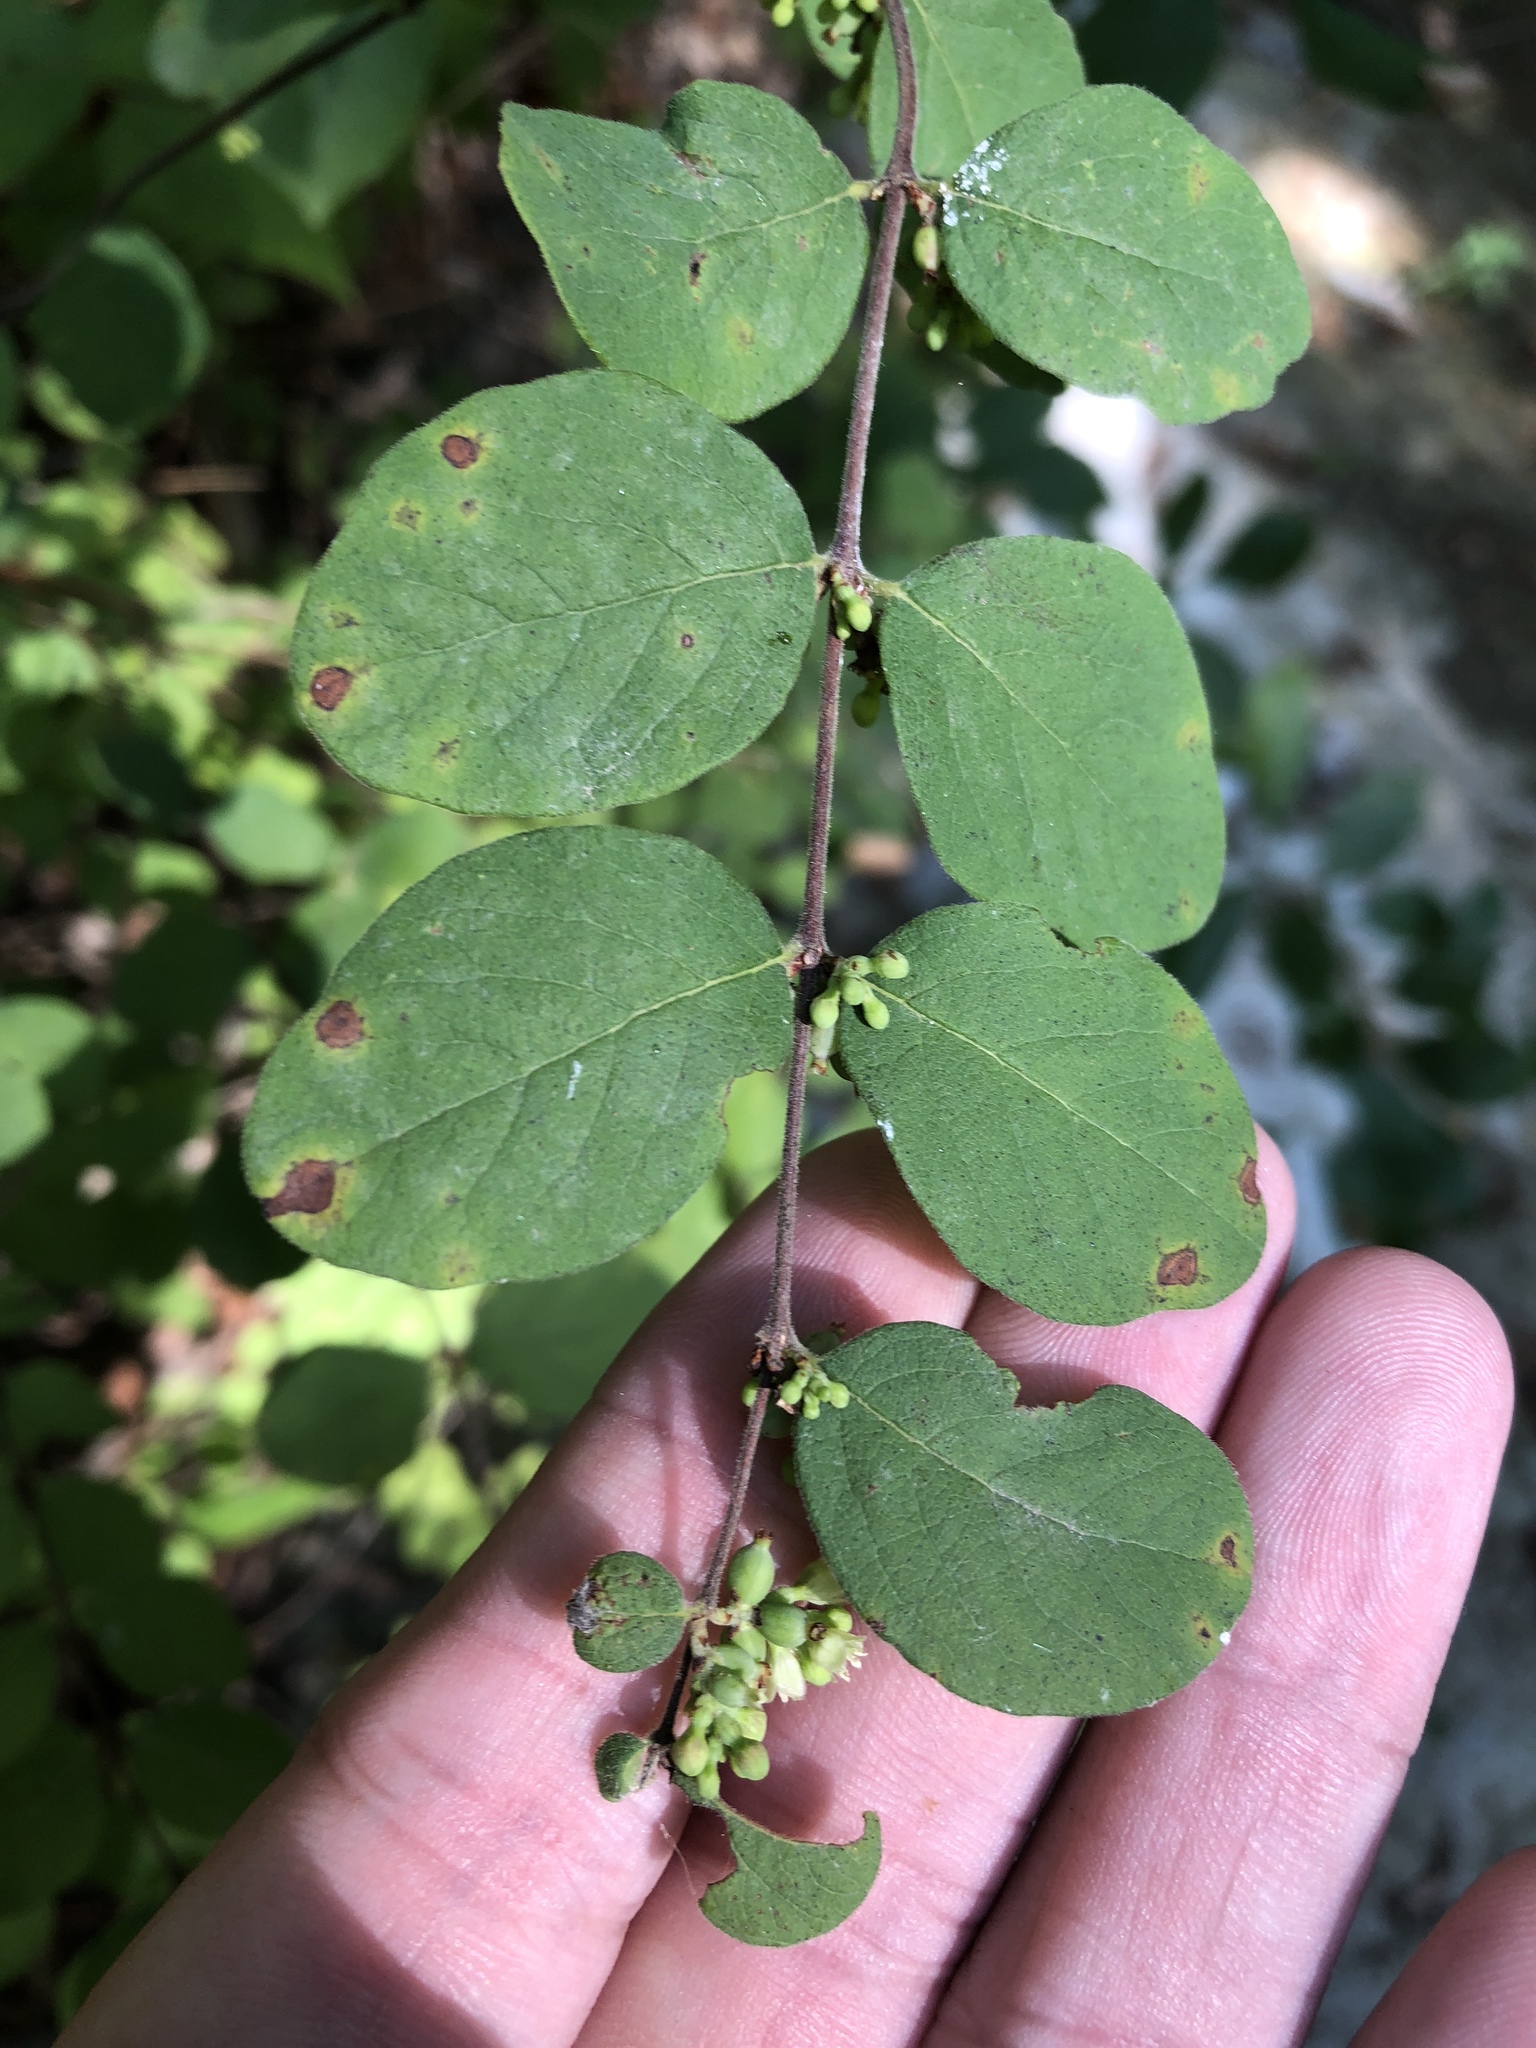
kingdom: Plantae
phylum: Tracheophyta
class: Magnoliopsida
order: Dipsacales
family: Caprifoliaceae
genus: Symphoricarpos
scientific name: Symphoricarpos orbiculatus
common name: Coralberry
